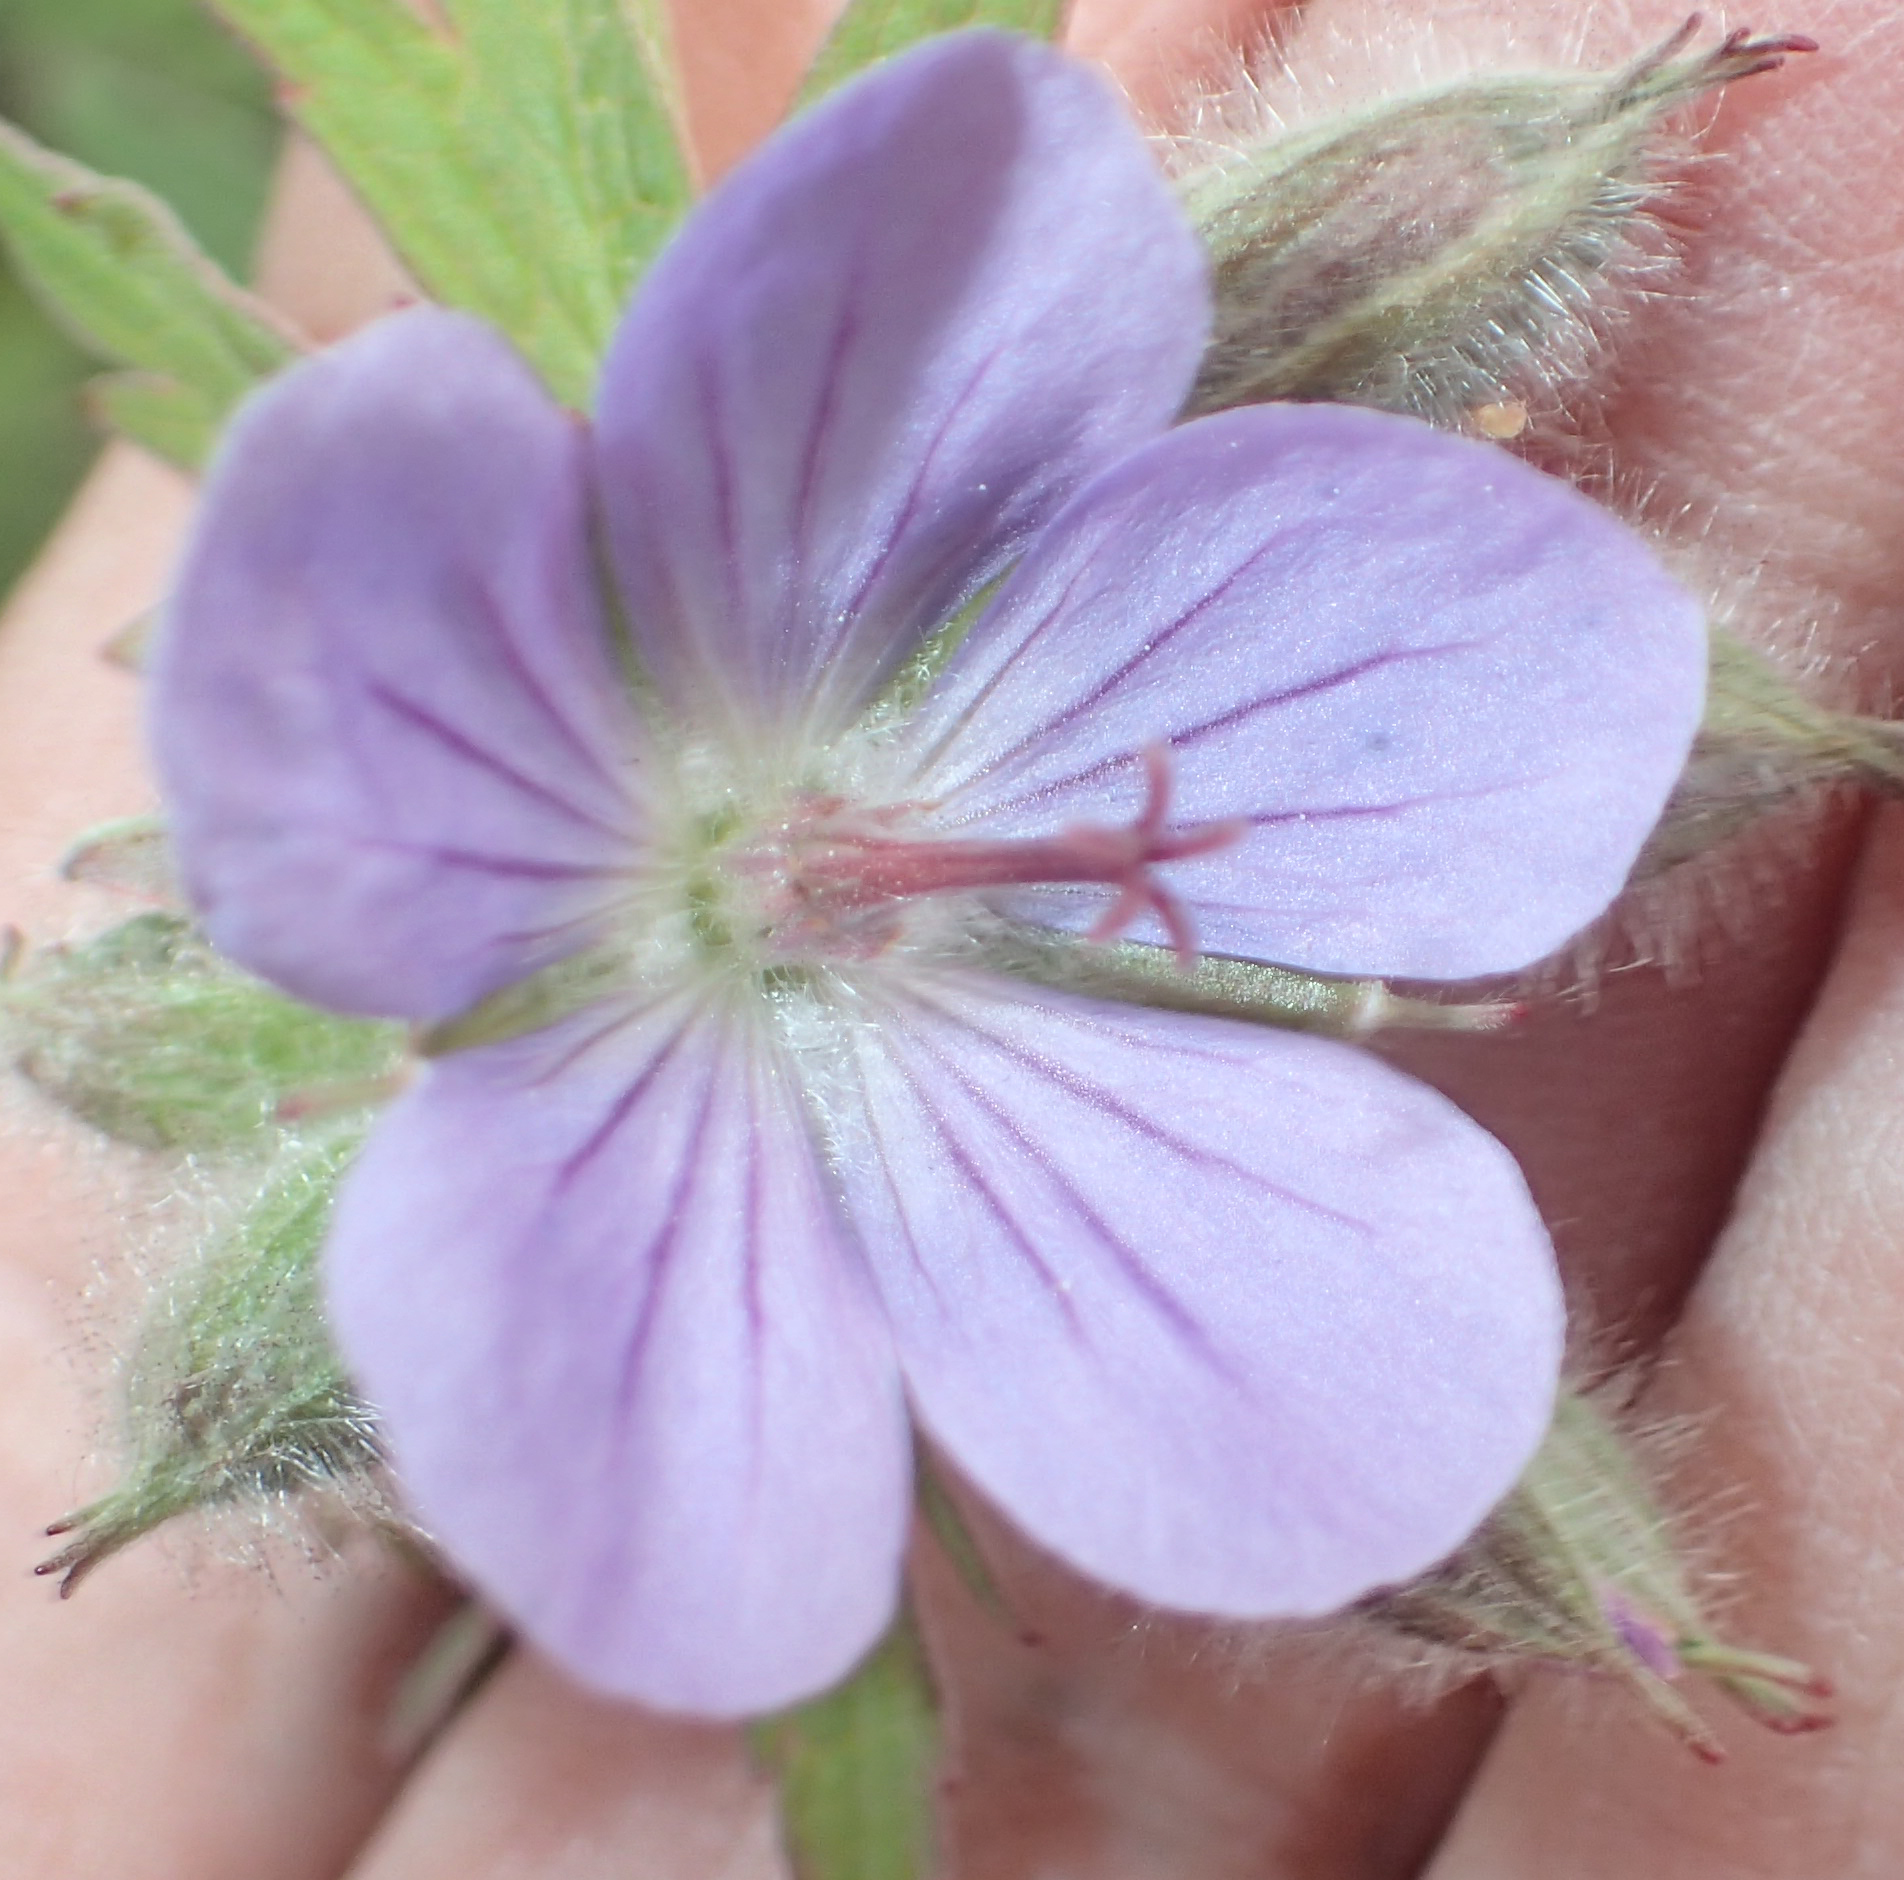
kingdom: Plantae
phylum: Tracheophyta
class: Magnoliopsida
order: Geraniales
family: Geraniaceae
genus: Geranium
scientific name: Geranium erianthum
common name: Northern crane's-bill
